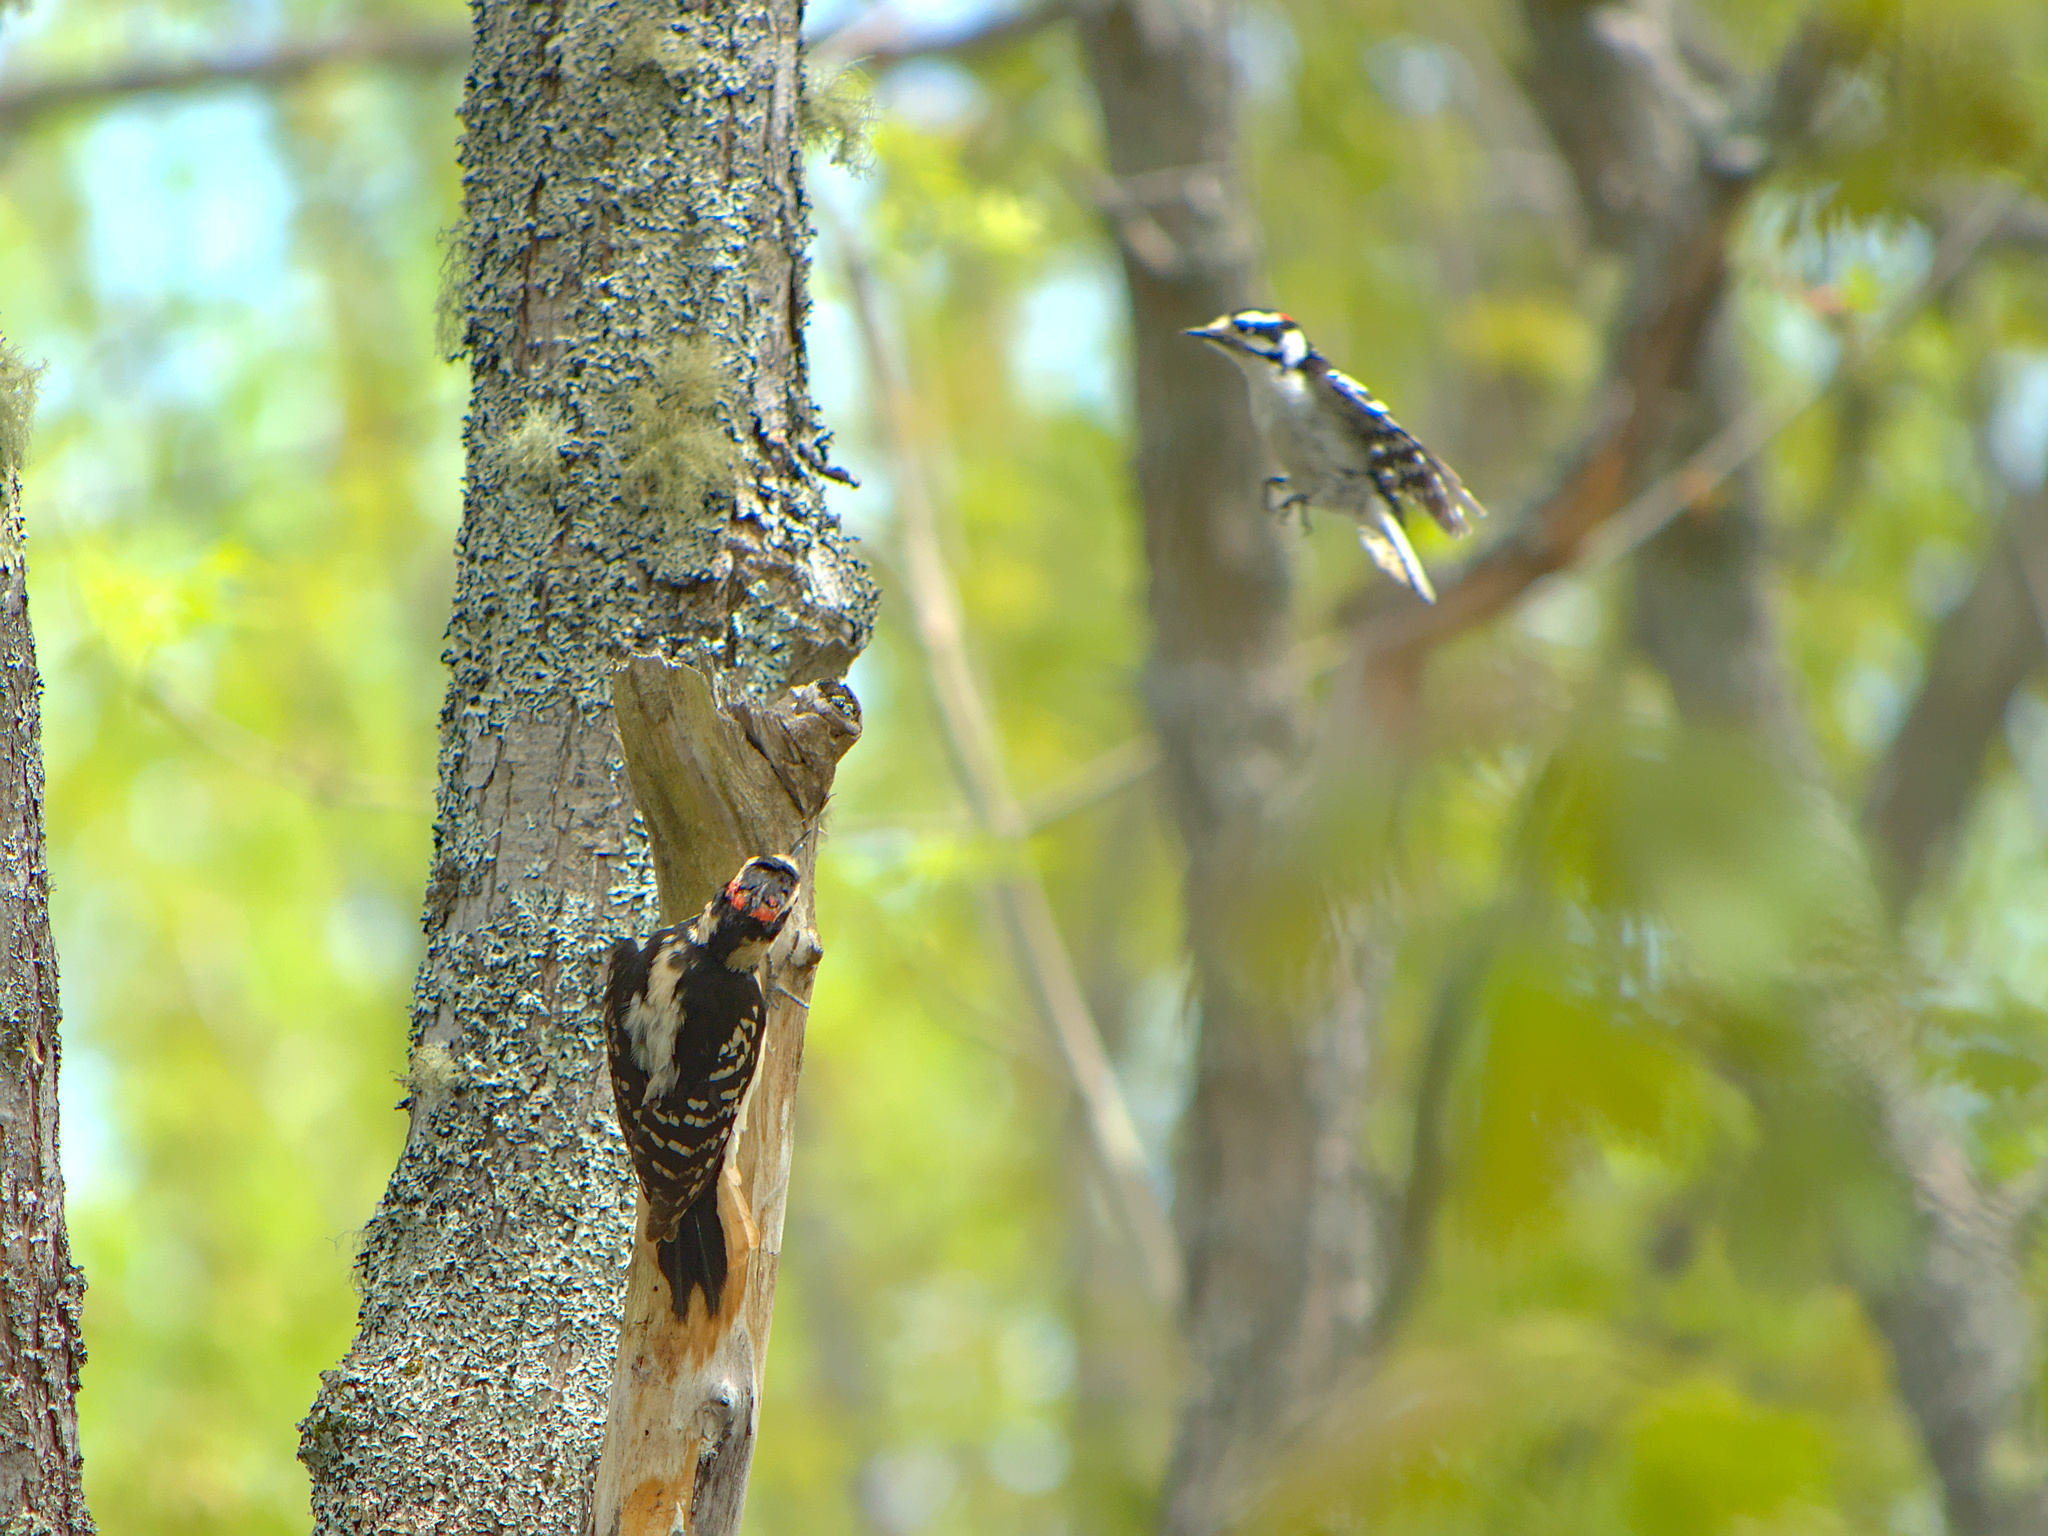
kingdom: Animalia
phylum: Chordata
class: Aves
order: Piciformes
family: Picidae
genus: Dryobates
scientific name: Dryobates pubescens
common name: Downy woodpecker
